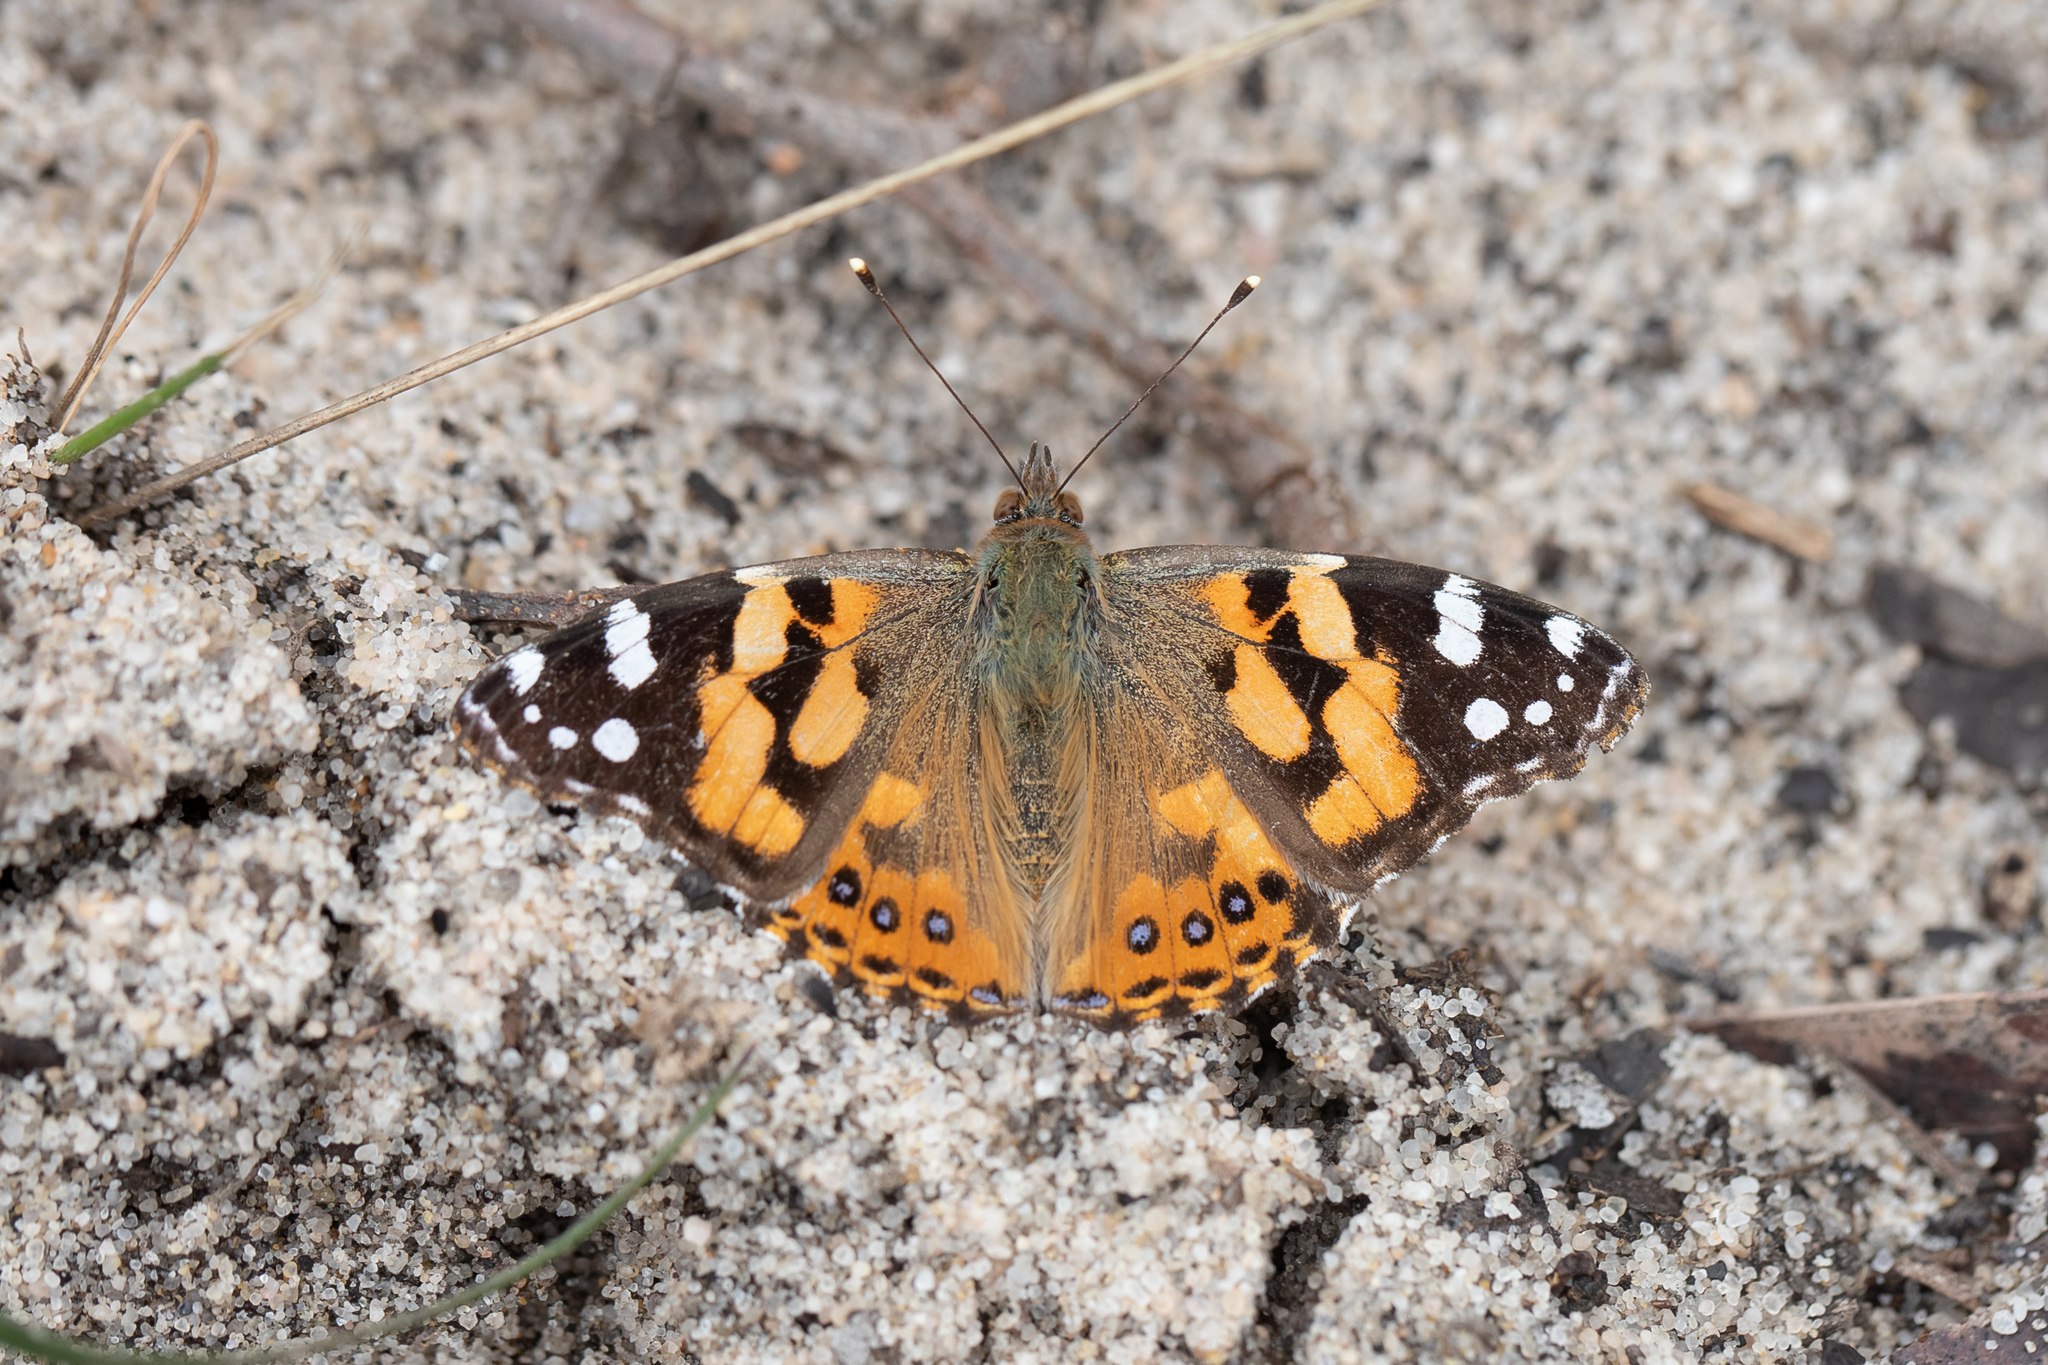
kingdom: Animalia
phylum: Arthropoda
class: Insecta
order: Lepidoptera
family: Nymphalidae
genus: Vanessa
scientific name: Vanessa kershawi
